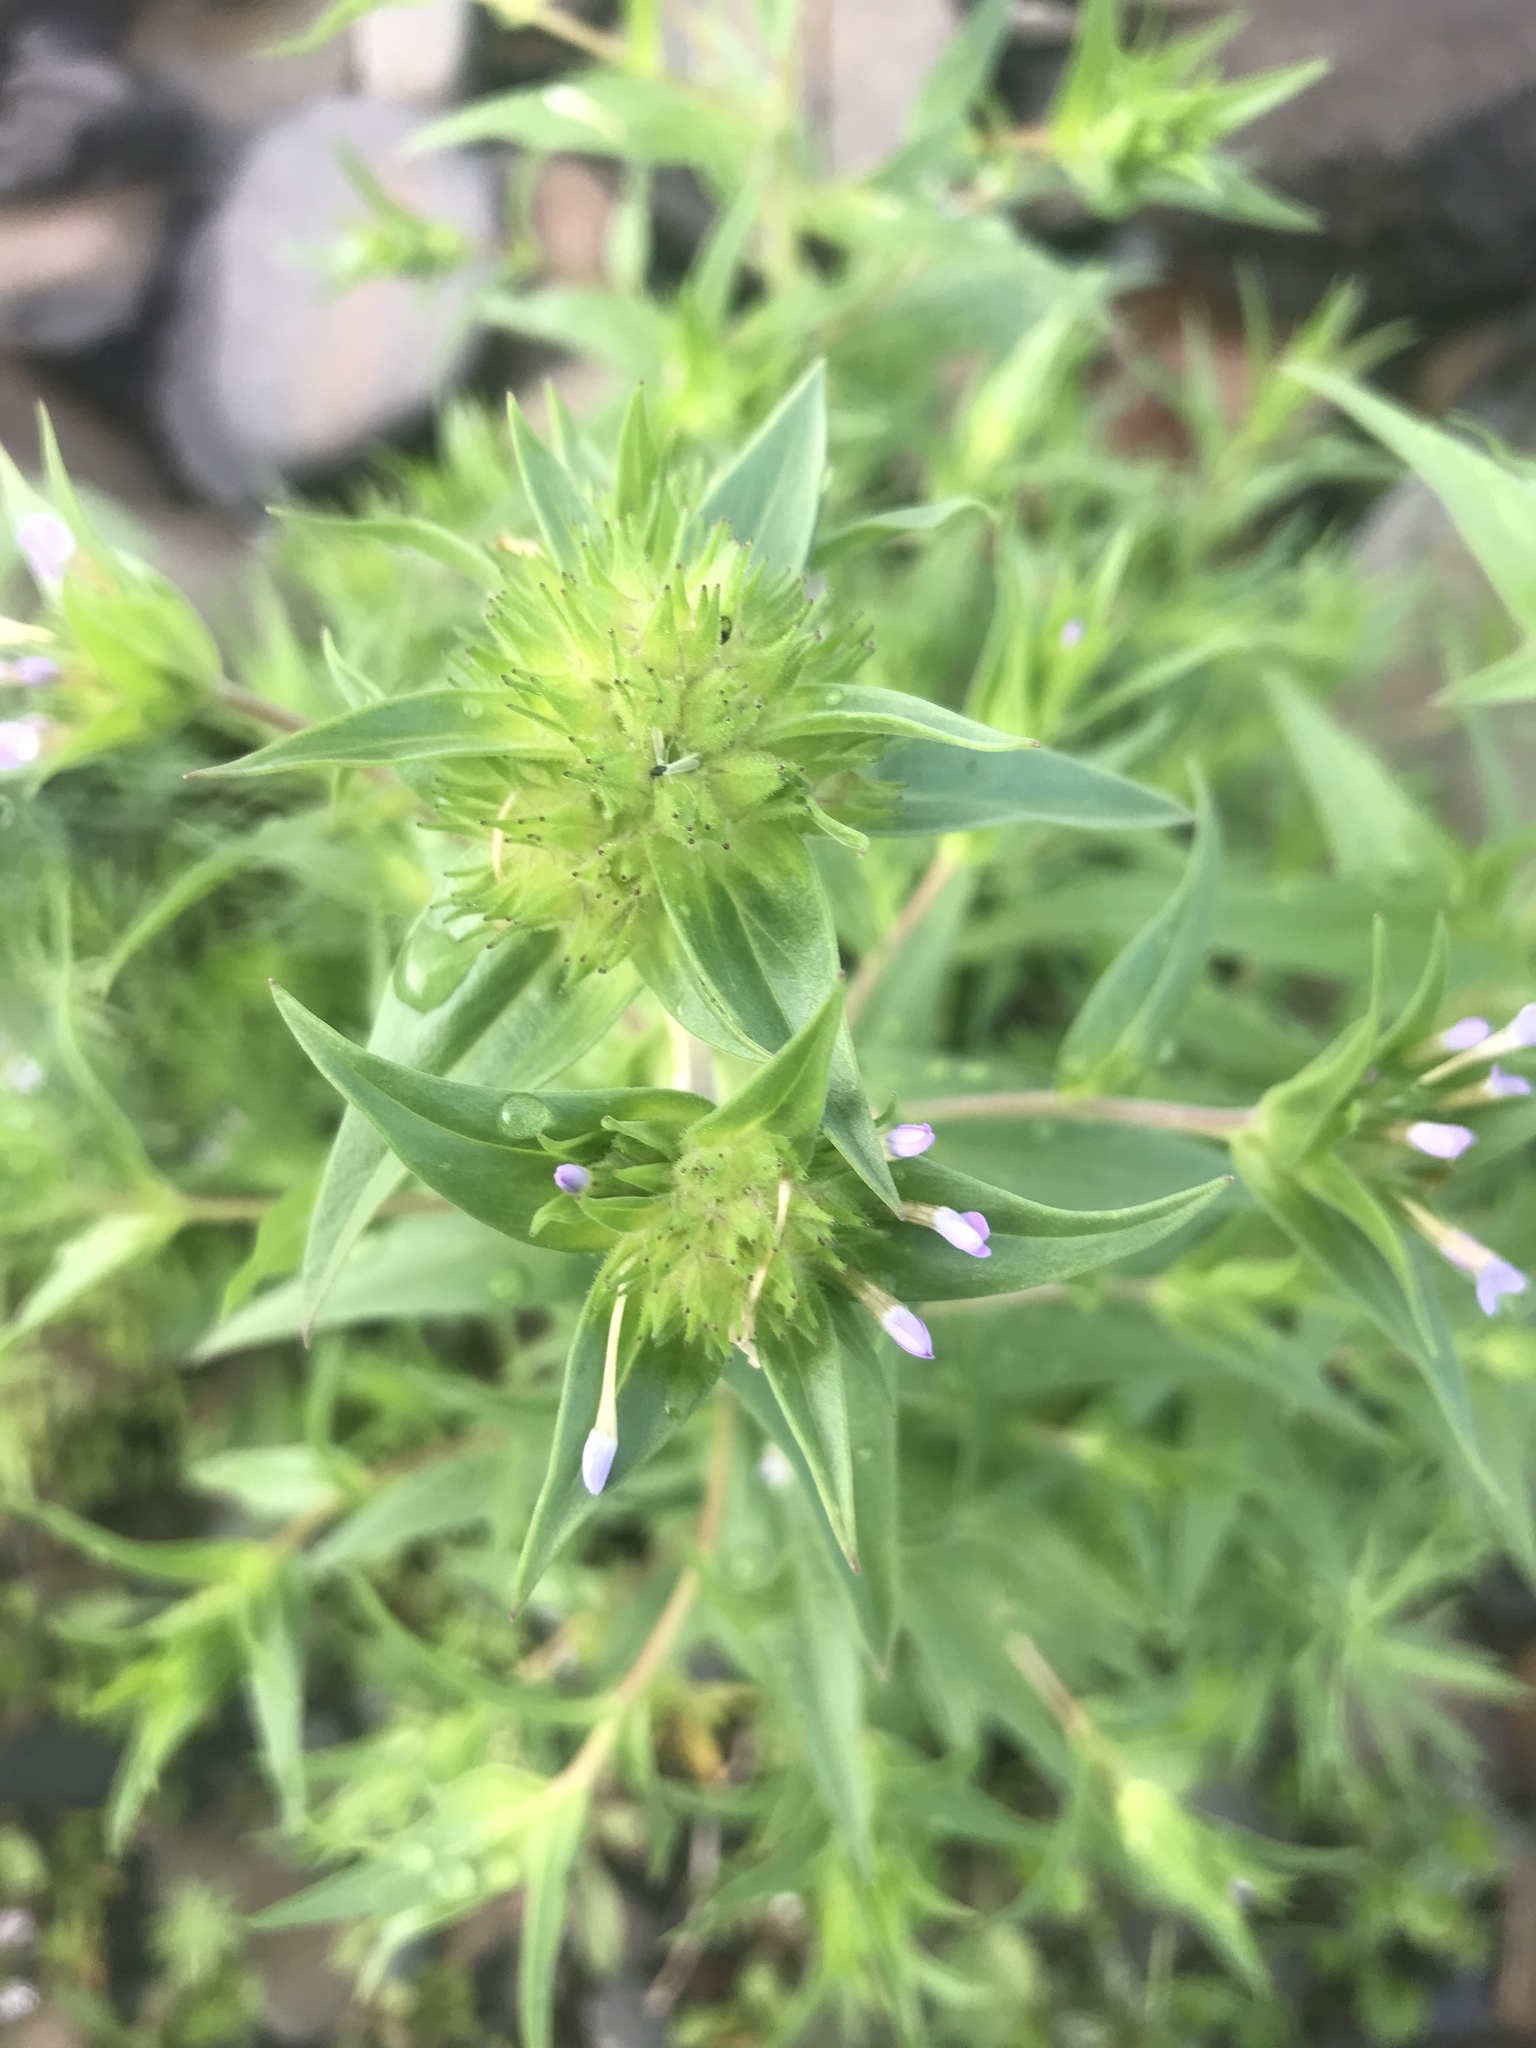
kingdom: Plantae
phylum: Tracheophyta
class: Magnoliopsida
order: Ericales
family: Polemoniaceae
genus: Collomia
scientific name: Collomia linearis
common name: Tiny trumpet
